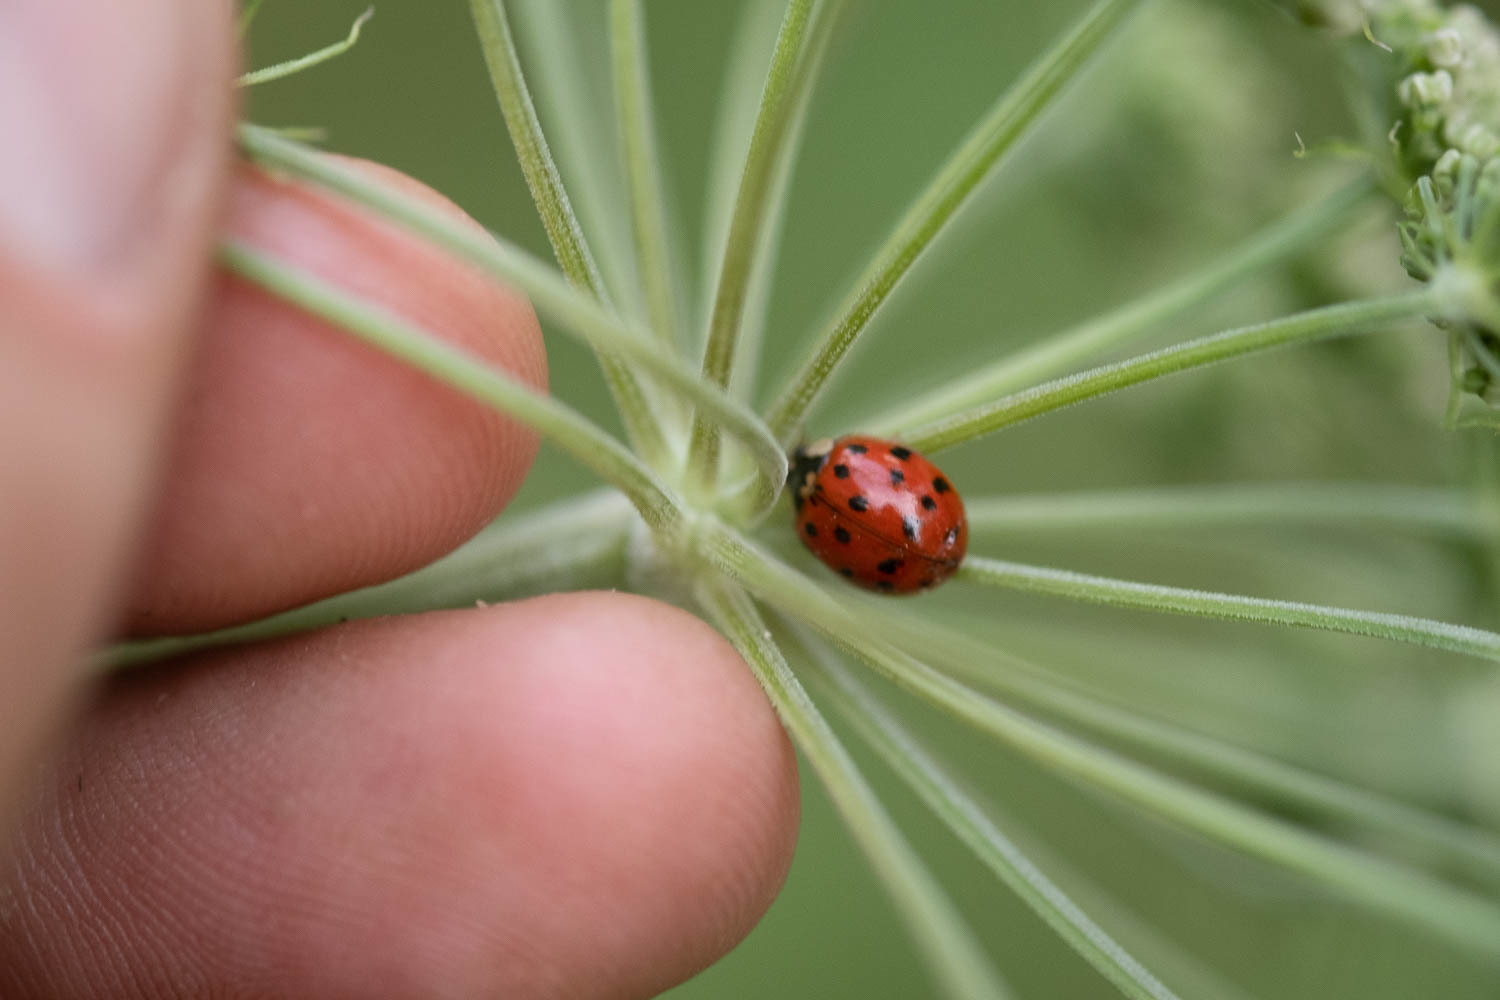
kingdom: Animalia
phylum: Arthropoda
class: Insecta
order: Coleoptera
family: Coccinellidae
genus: Harmonia
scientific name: Harmonia axyridis
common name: Harlequin ladybird
